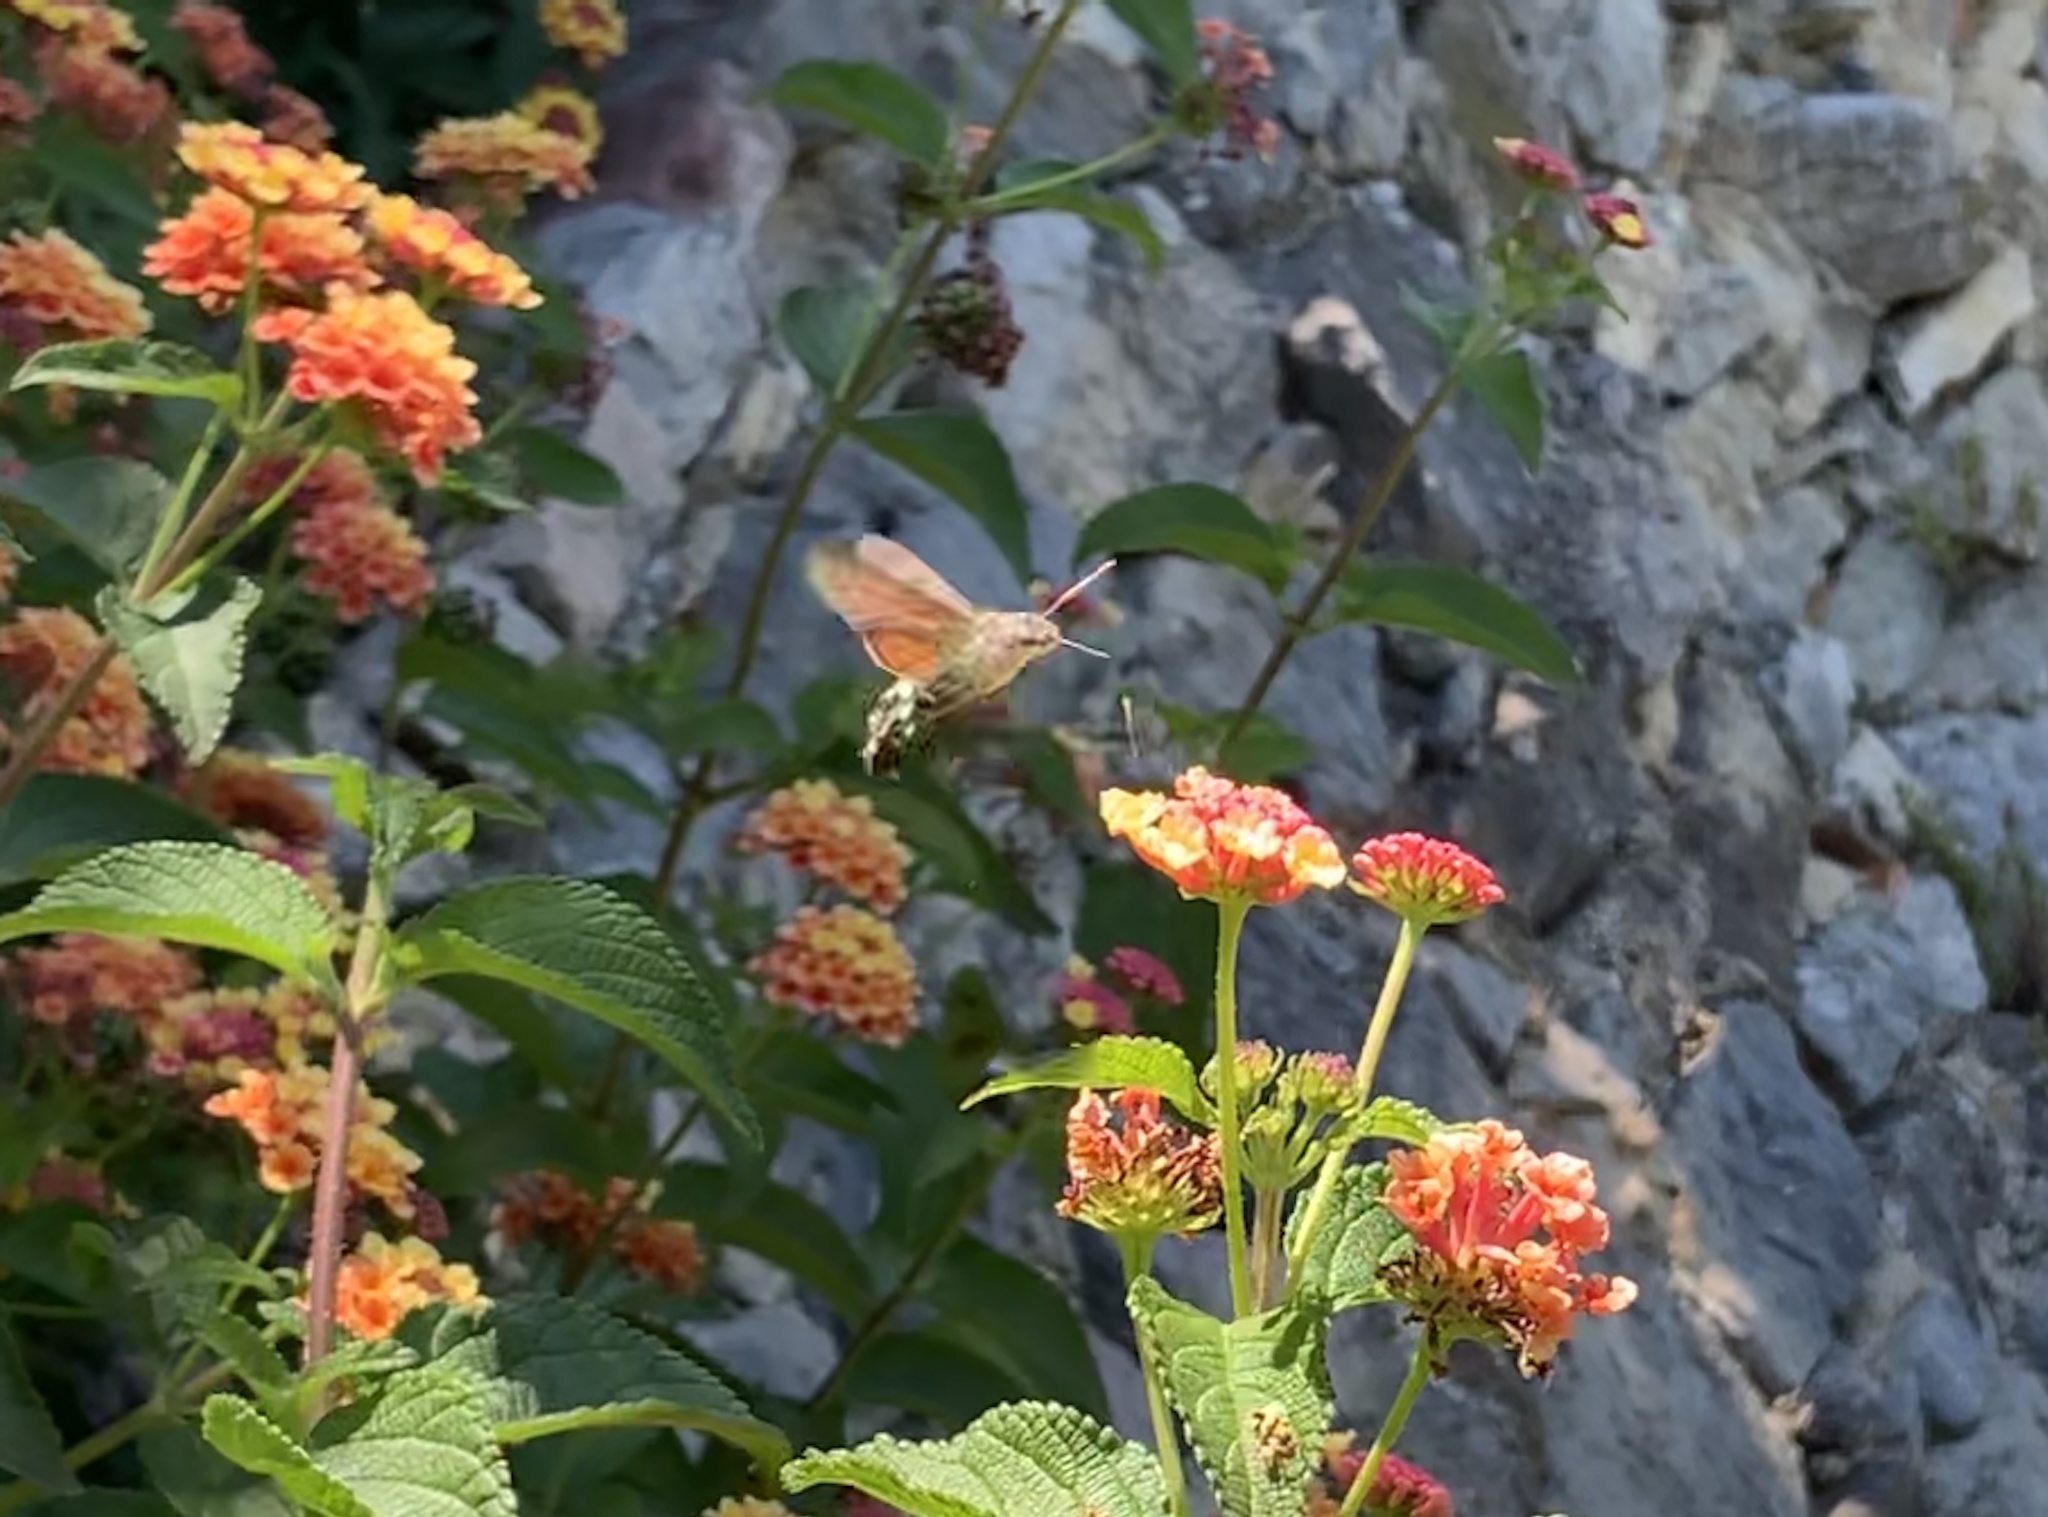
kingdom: Animalia
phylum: Arthropoda
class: Insecta
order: Lepidoptera
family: Sphingidae
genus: Macroglossum
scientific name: Macroglossum stellatarum
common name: Humming-bird hawk-moth
